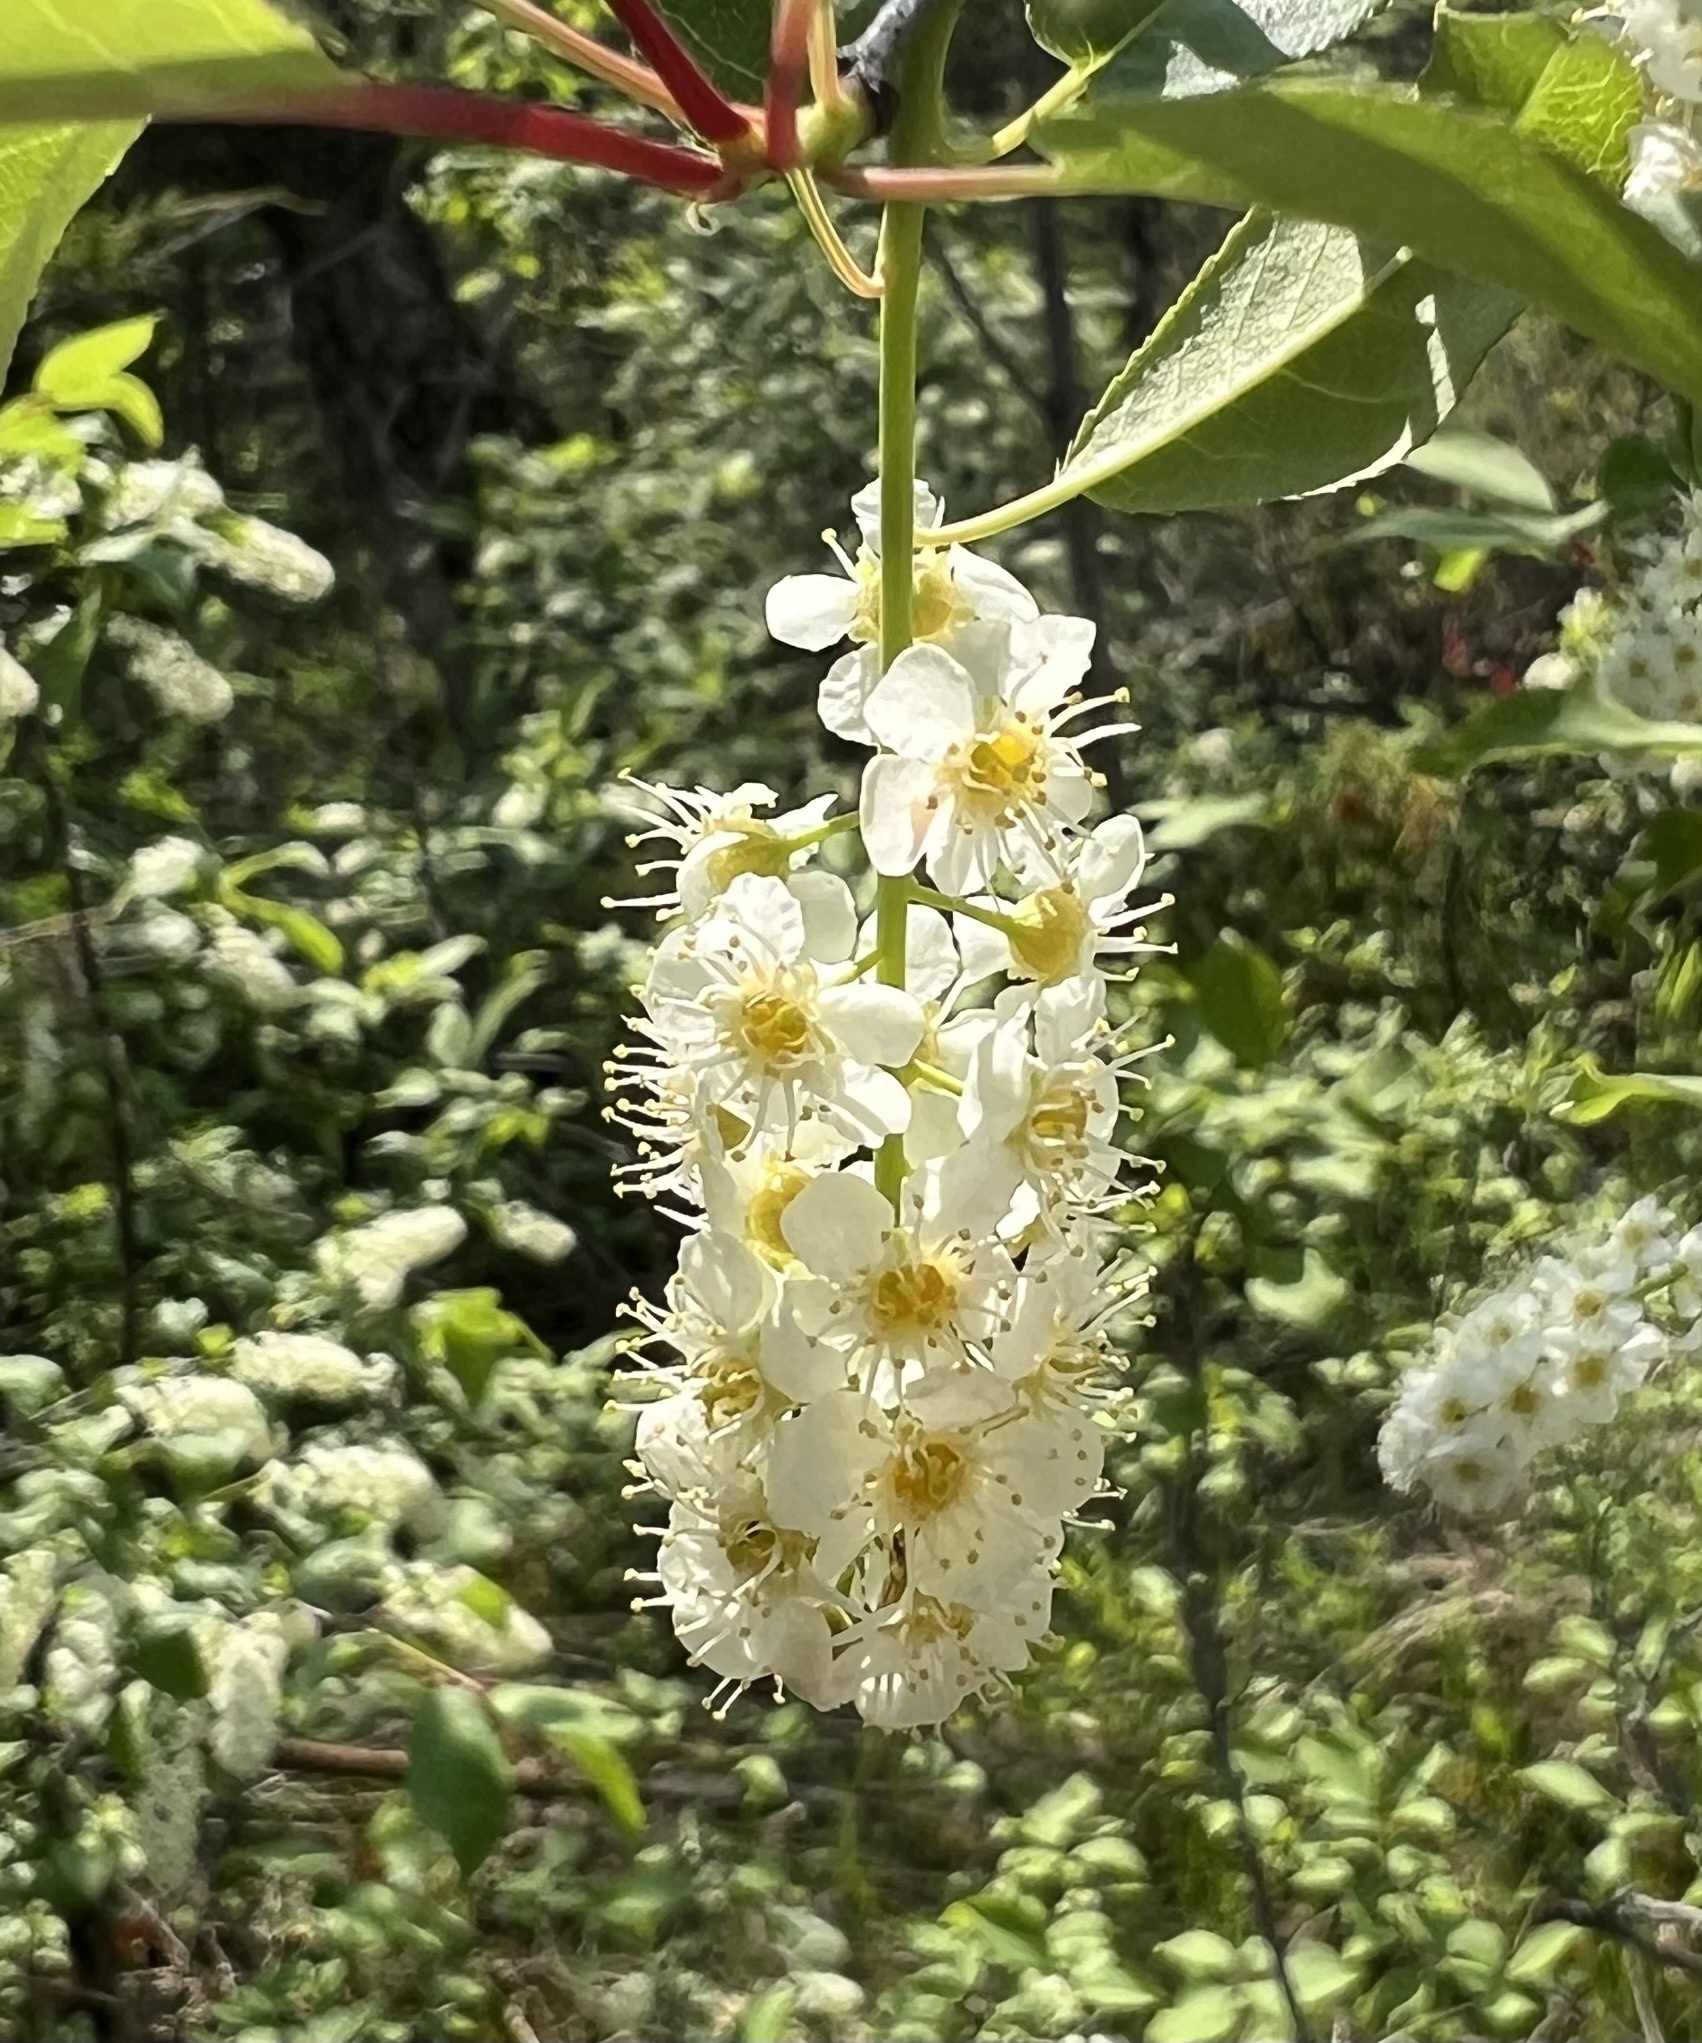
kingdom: Plantae
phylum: Tracheophyta
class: Magnoliopsida
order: Rosales
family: Rosaceae
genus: Prunus
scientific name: Prunus virginiana
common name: Chokecherry
